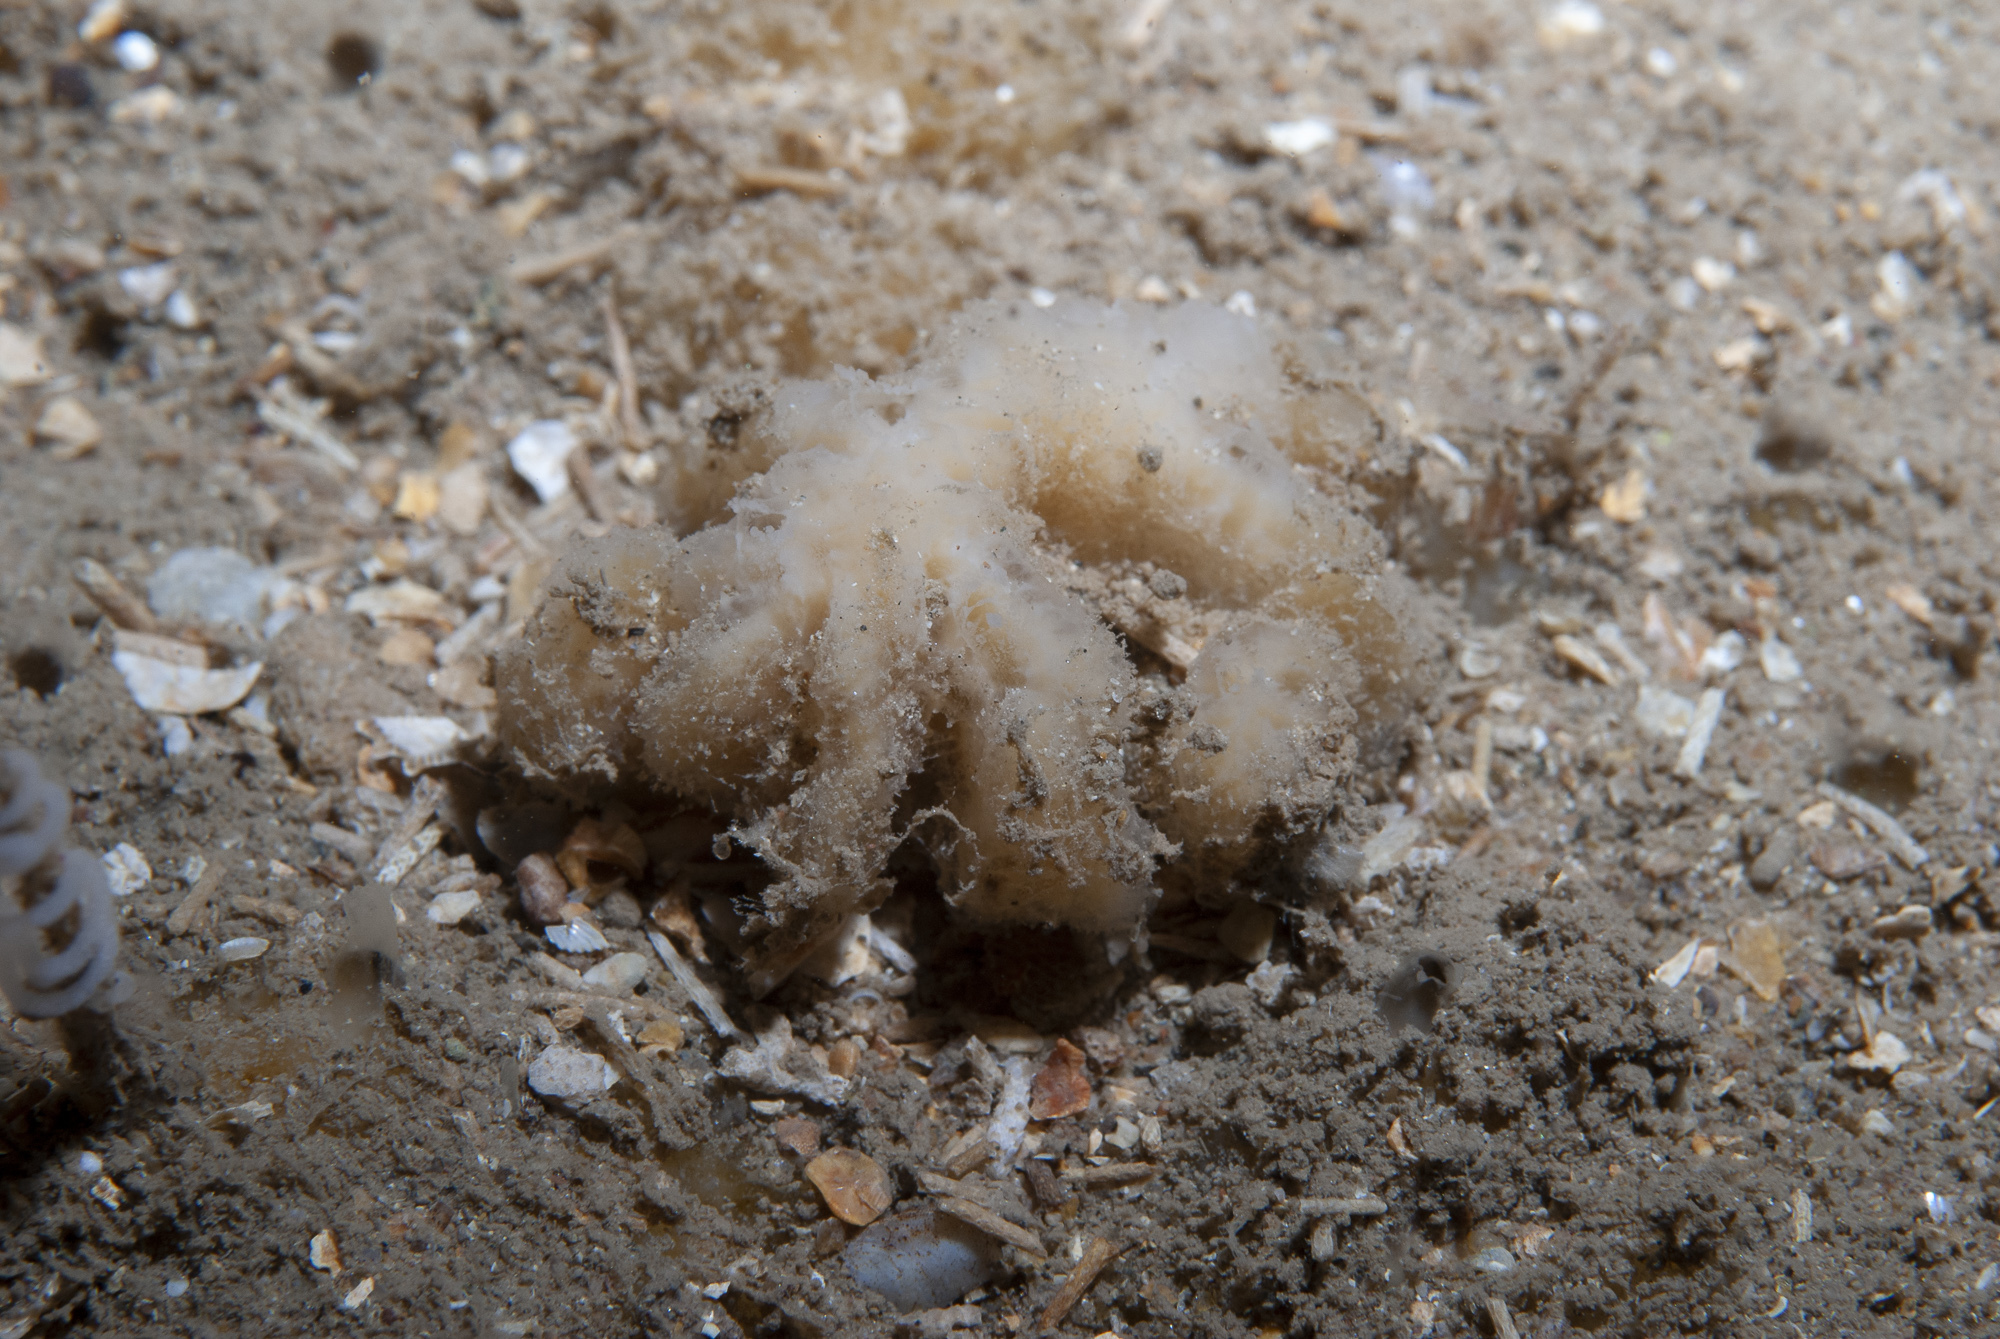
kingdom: Animalia
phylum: Porifera
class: Demospongiae
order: Axinellida
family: Axinellidae
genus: Axinella
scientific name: Axinella pyramidata
